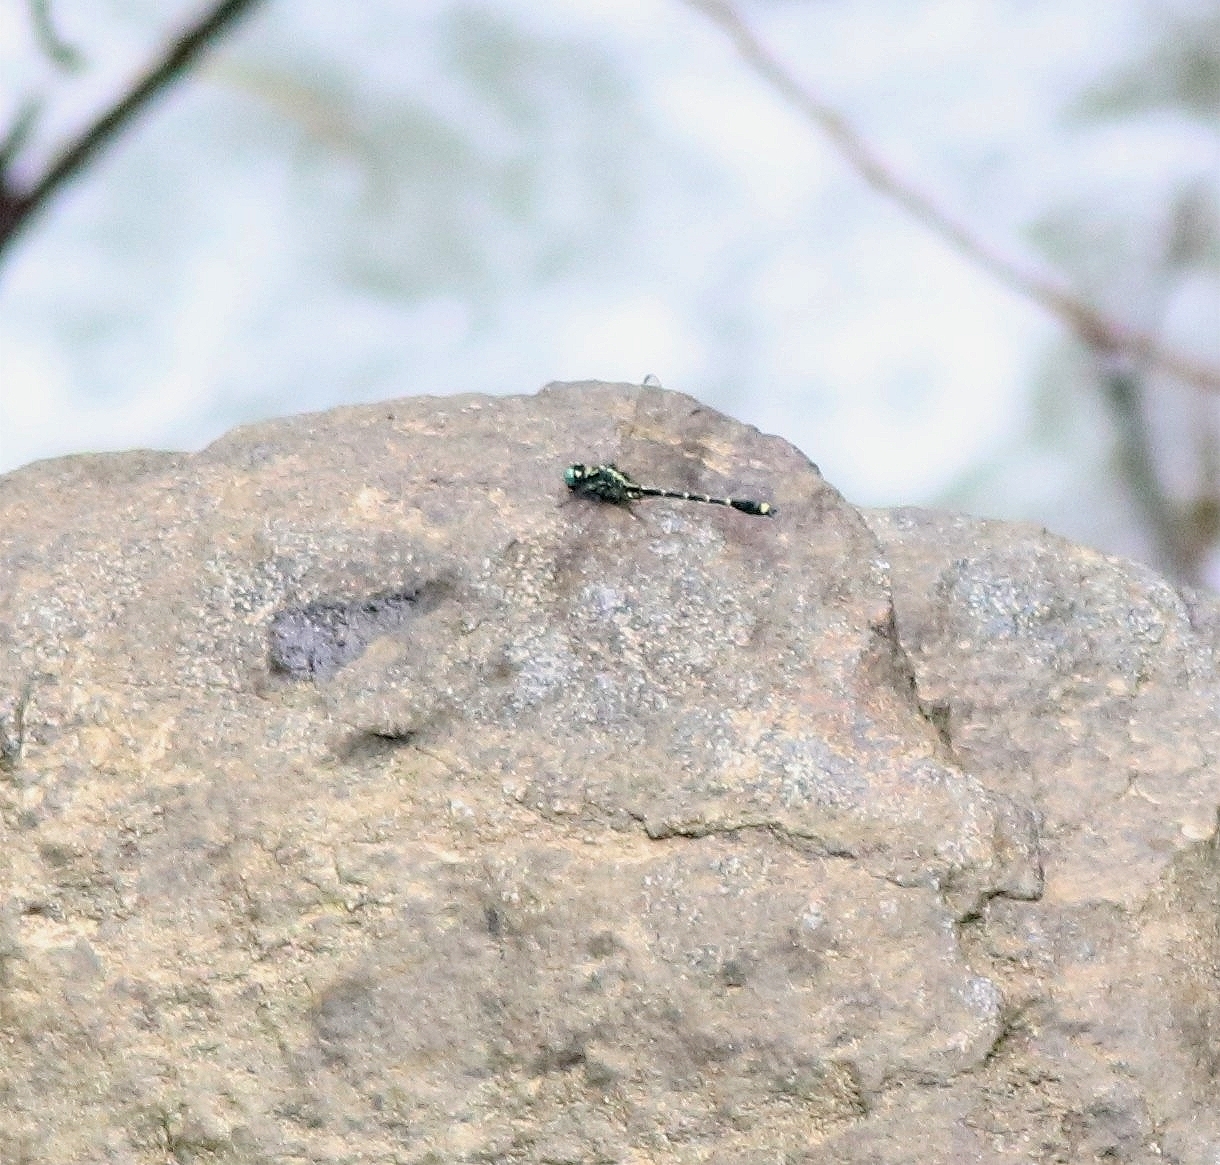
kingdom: Animalia
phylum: Arthropoda
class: Insecta
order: Odonata
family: Gomphidae
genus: Burmagomphus
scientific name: Burmagomphus laidlawi
